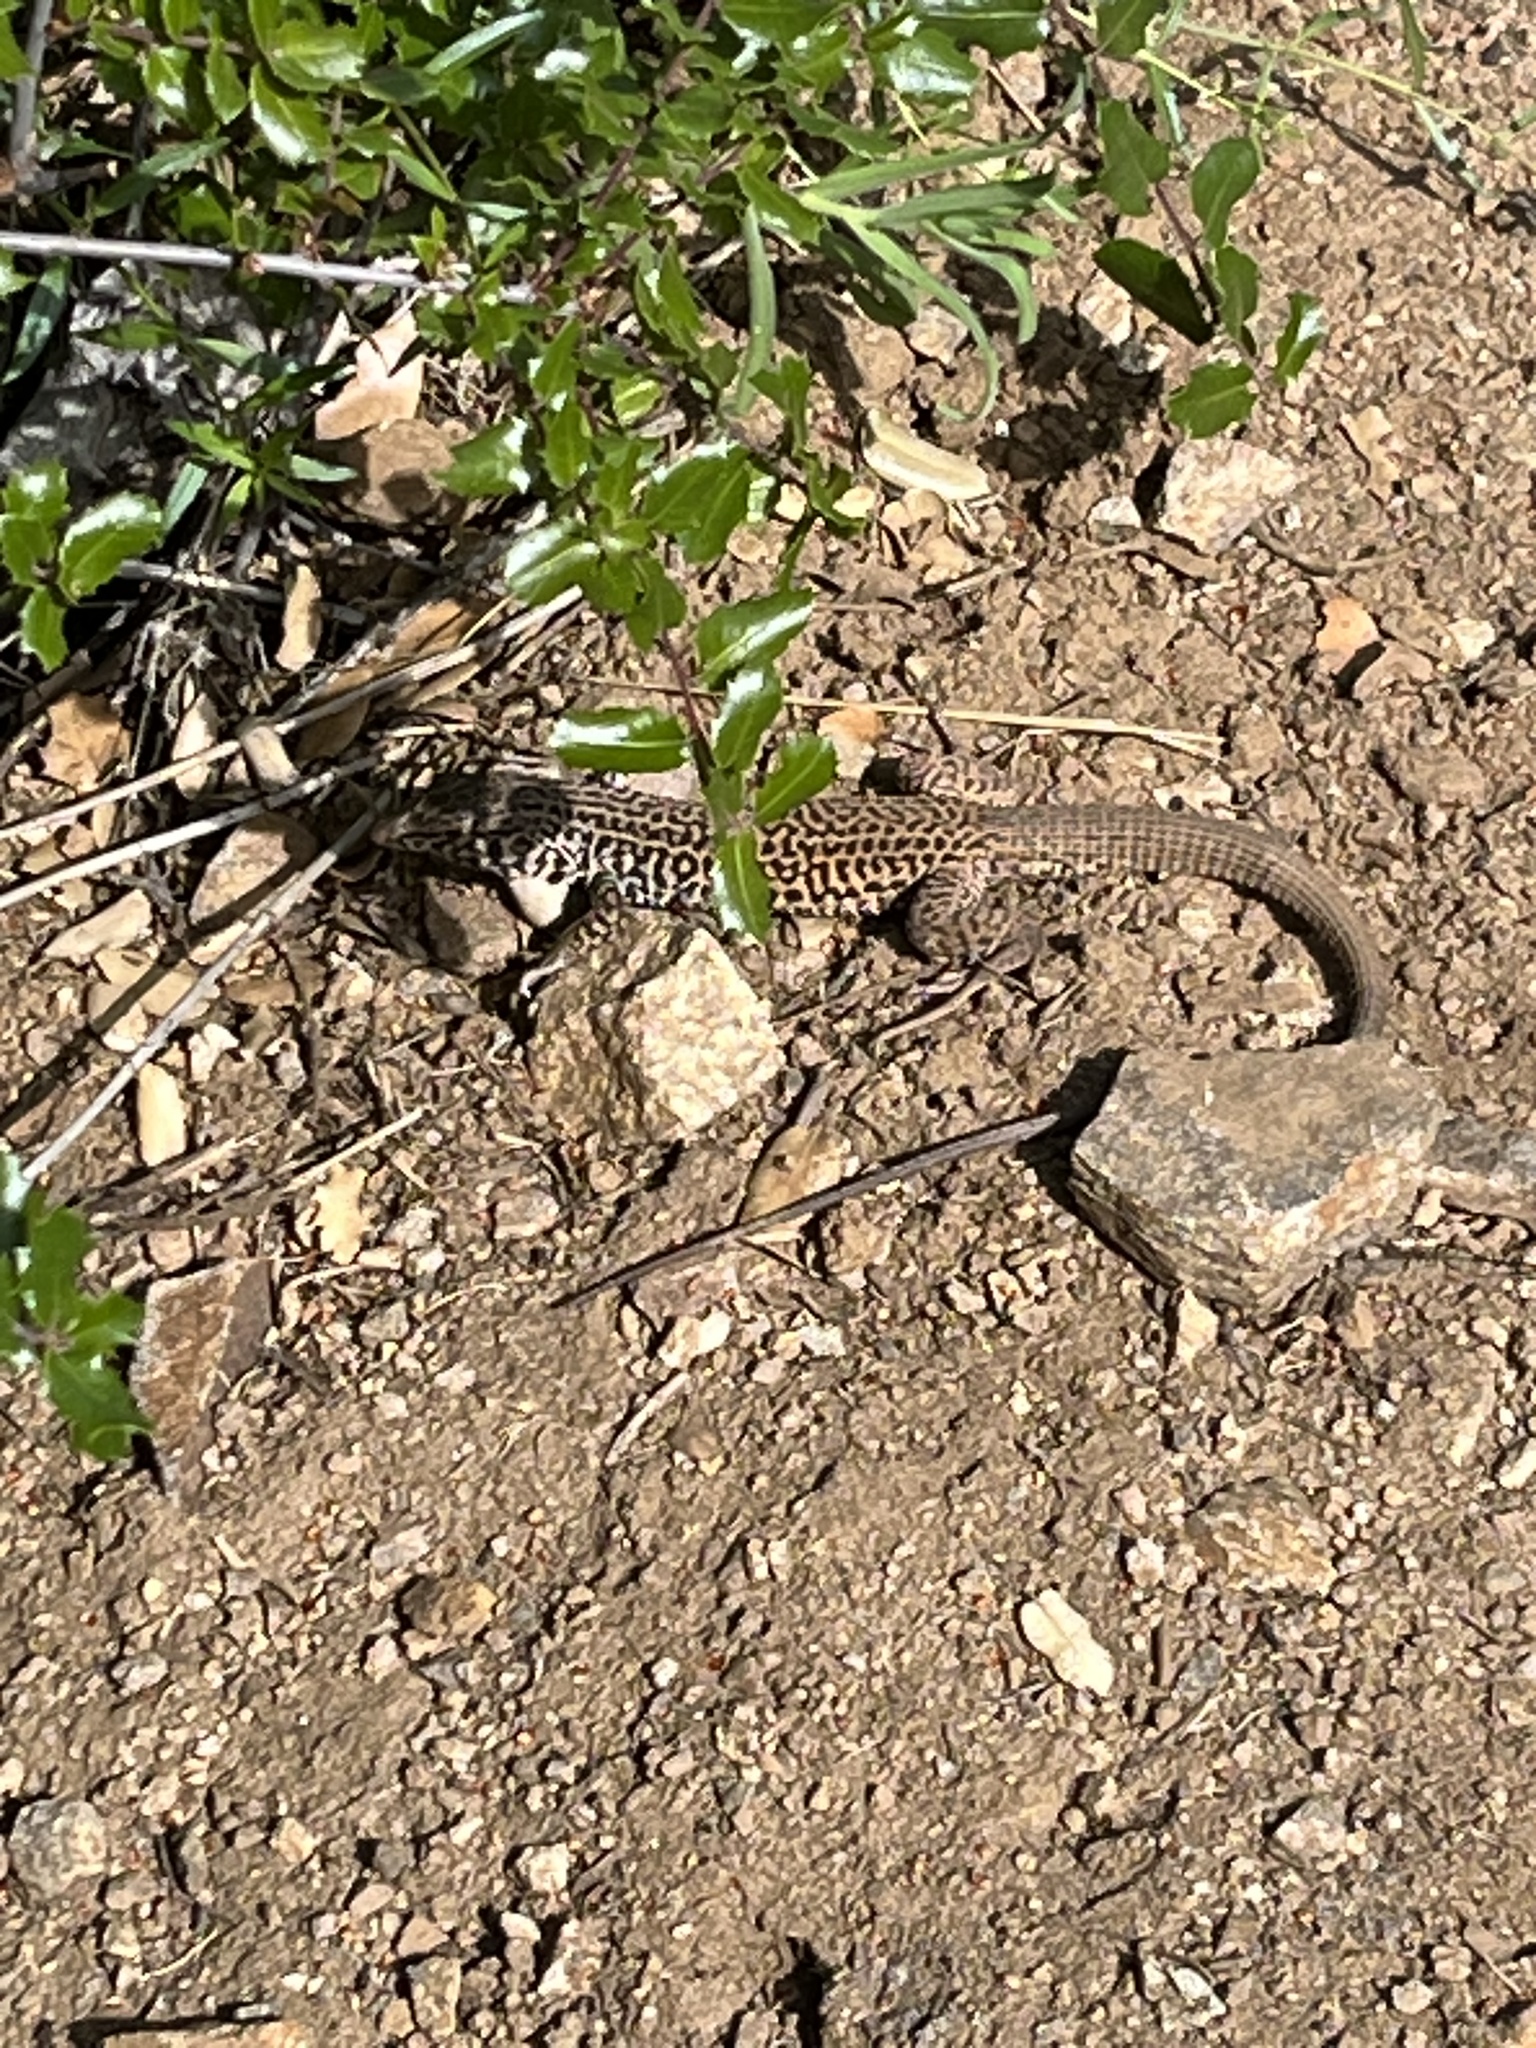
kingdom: Animalia
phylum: Chordata
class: Squamata
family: Teiidae
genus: Aspidoscelis
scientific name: Aspidoscelis tigris
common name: Tiger whiptail
